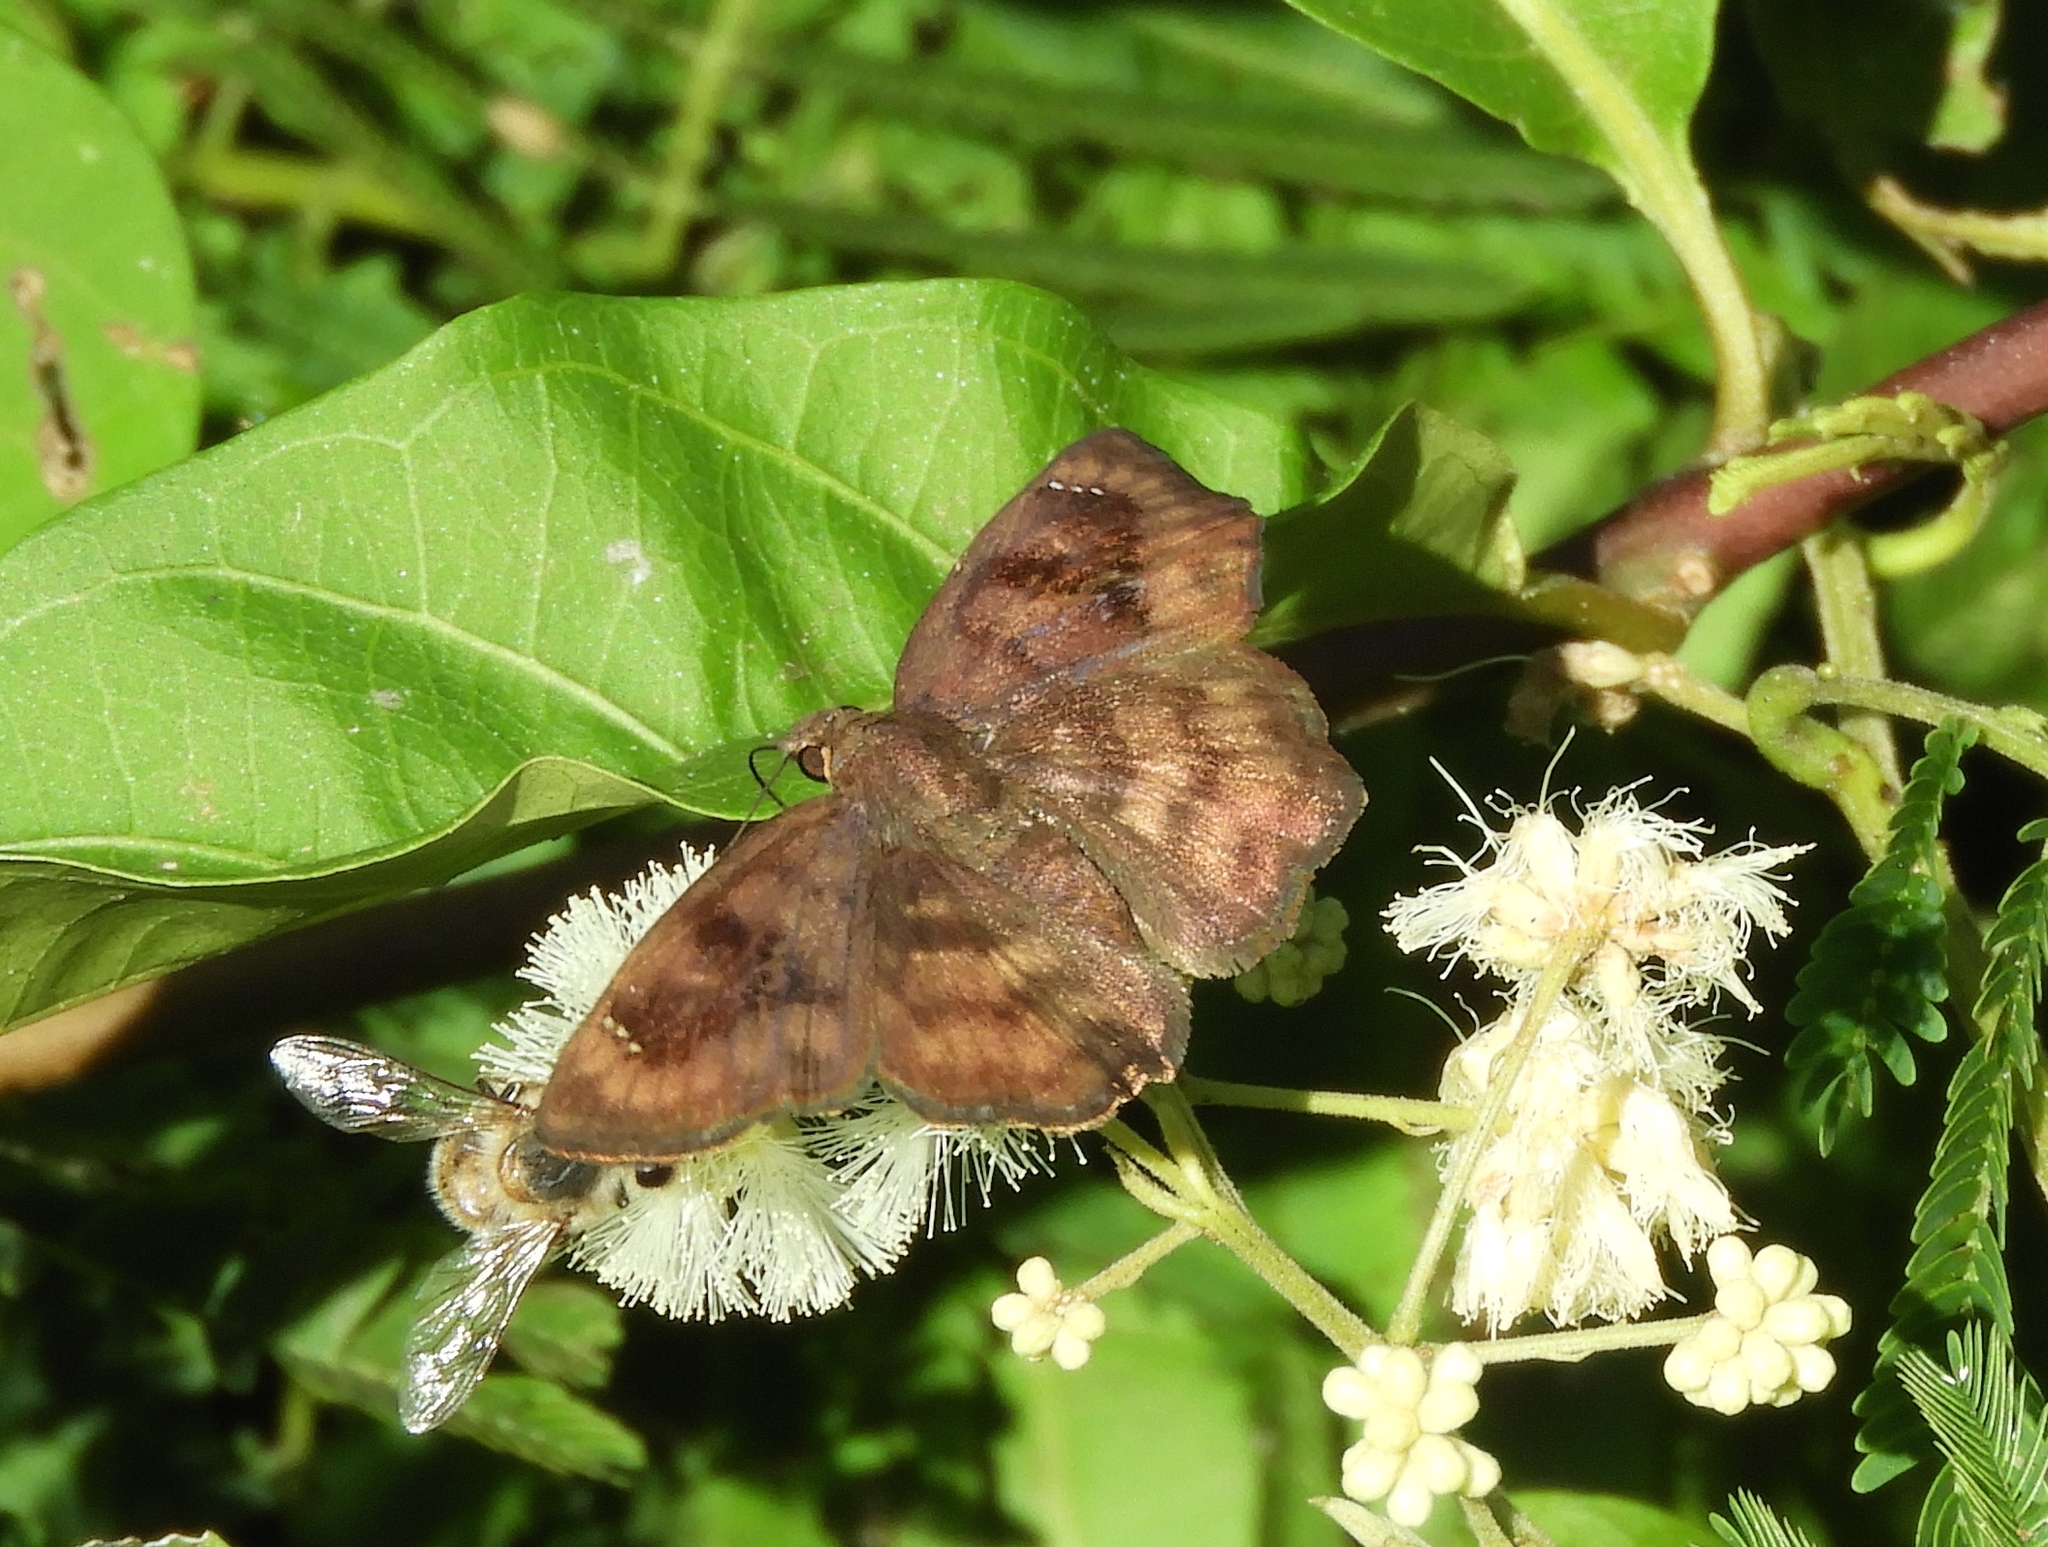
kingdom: Animalia
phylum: Arthropoda
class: Insecta
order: Lepidoptera
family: Hesperiidae
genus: Nisoniades
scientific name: Nisoniades
